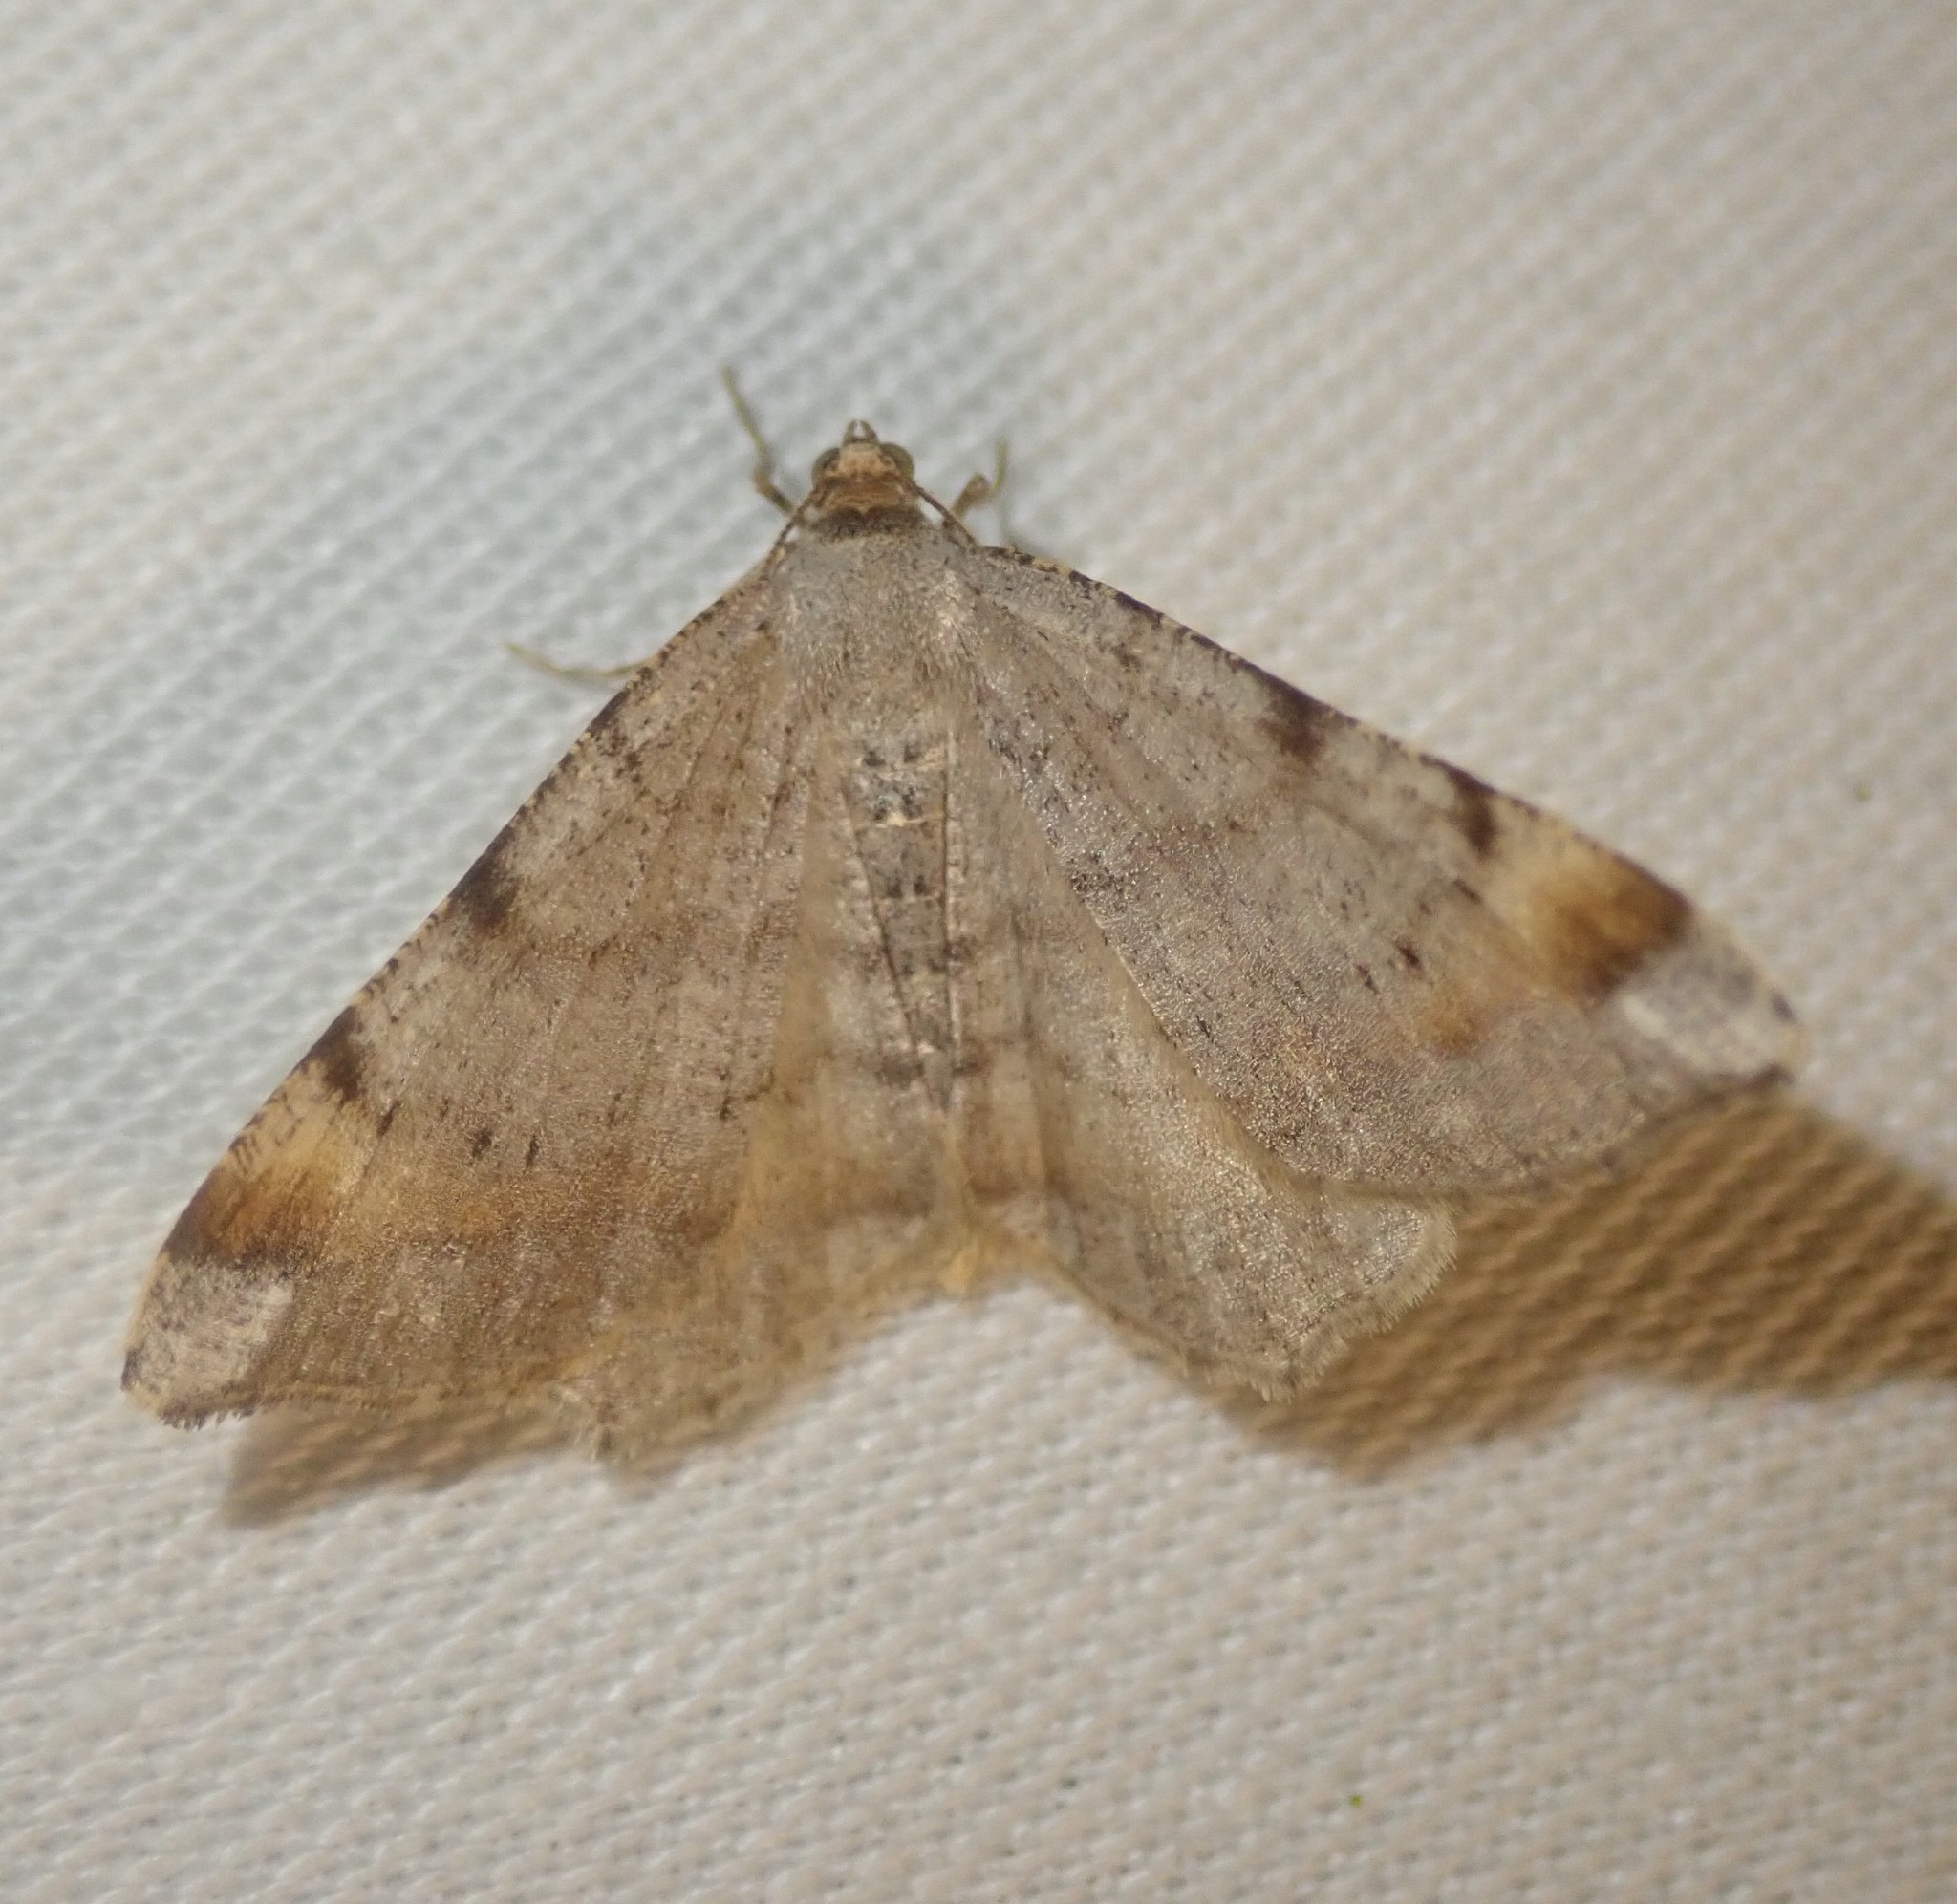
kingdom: Animalia
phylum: Arthropoda
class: Insecta
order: Lepidoptera
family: Geometridae
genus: Macaria
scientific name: Macaria liturata
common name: Tawny-barred angle
